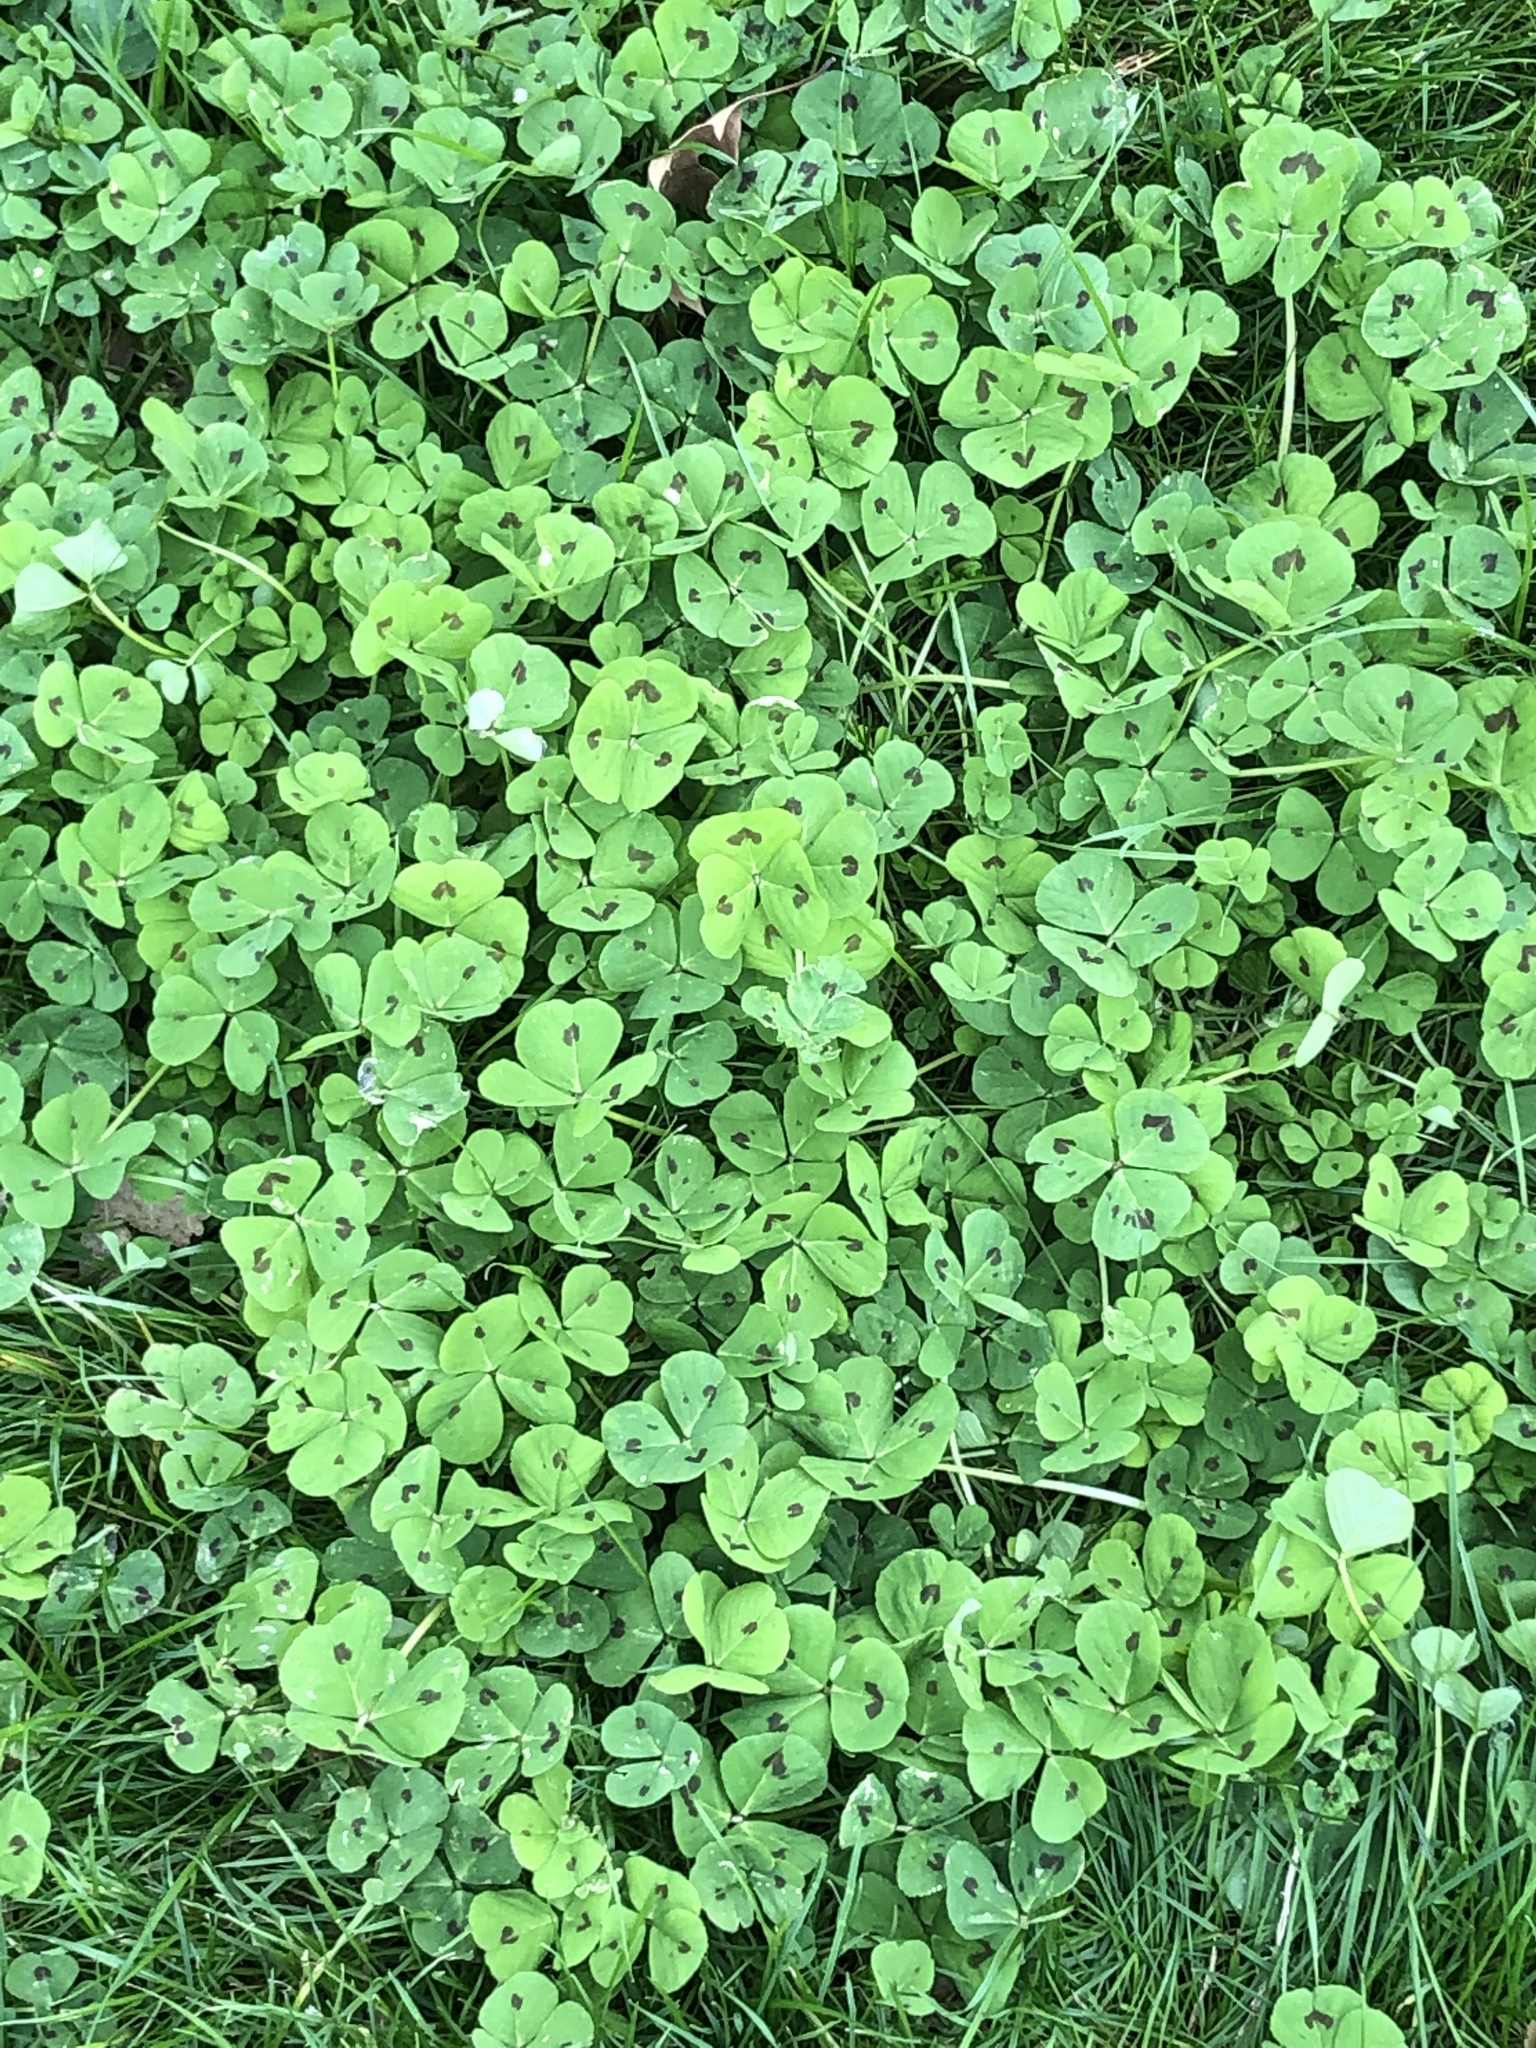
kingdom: Plantae
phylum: Tracheophyta
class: Magnoliopsida
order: Fabales
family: Fabaceae
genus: Medicago
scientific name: Medicago arabica
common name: Spotted medick
